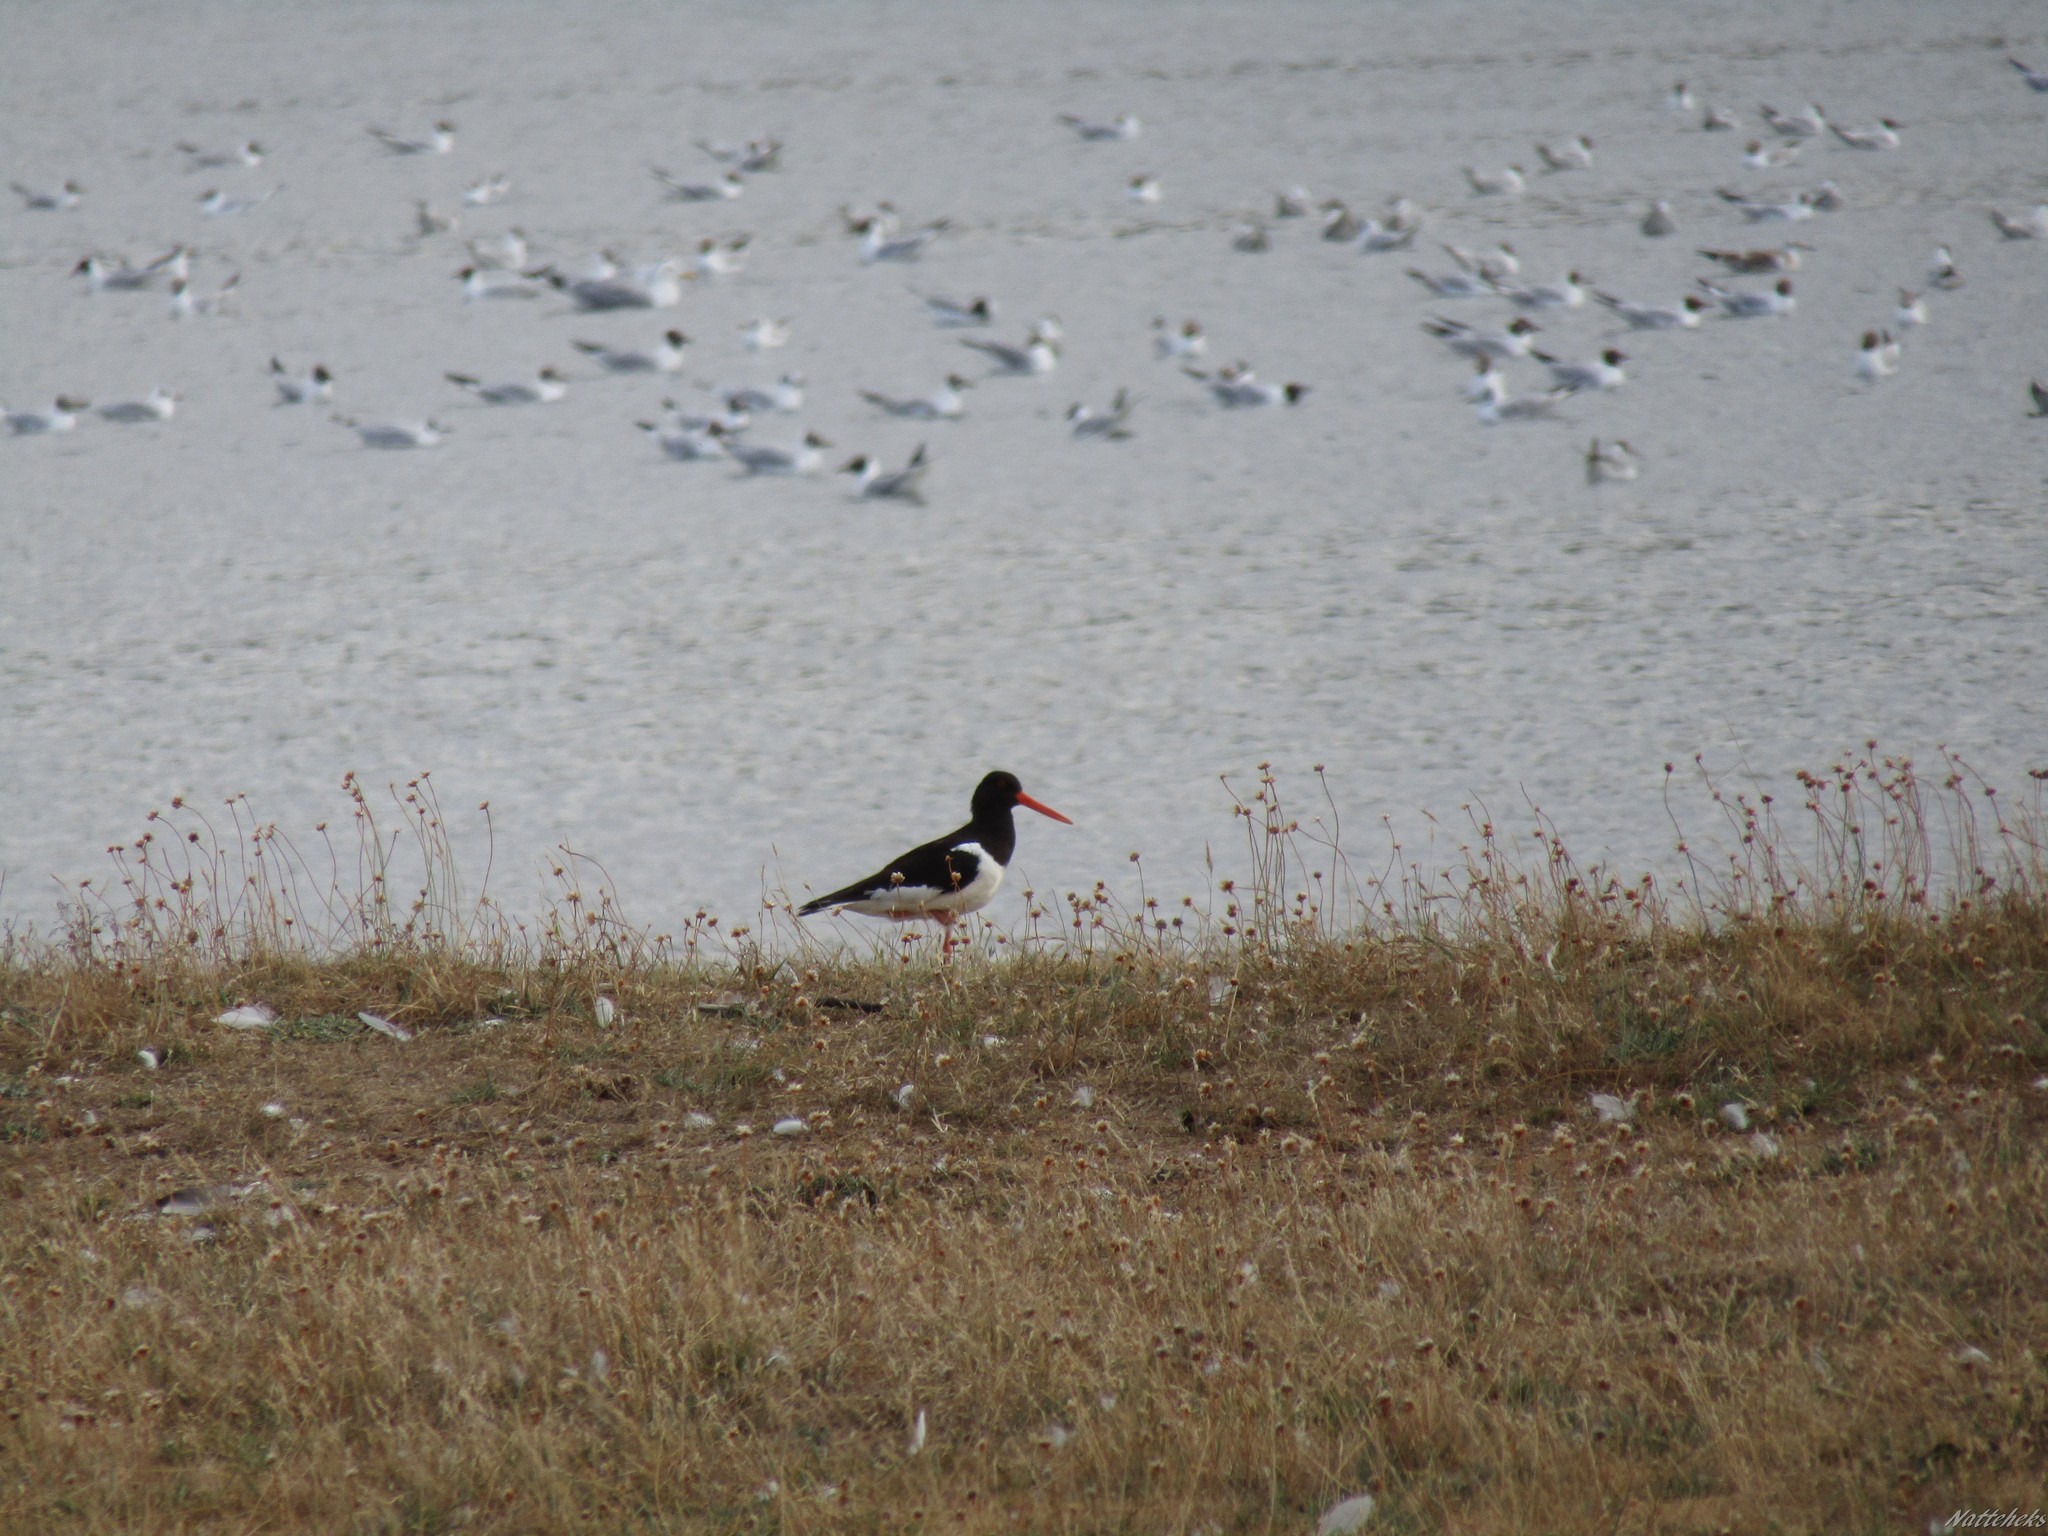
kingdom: Animalia
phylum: Chordata
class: Aves
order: Charadriiformes
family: Haematopodidae
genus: Haematopus
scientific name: Haematopus ostralegus
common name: Eurasian oystercatcher
